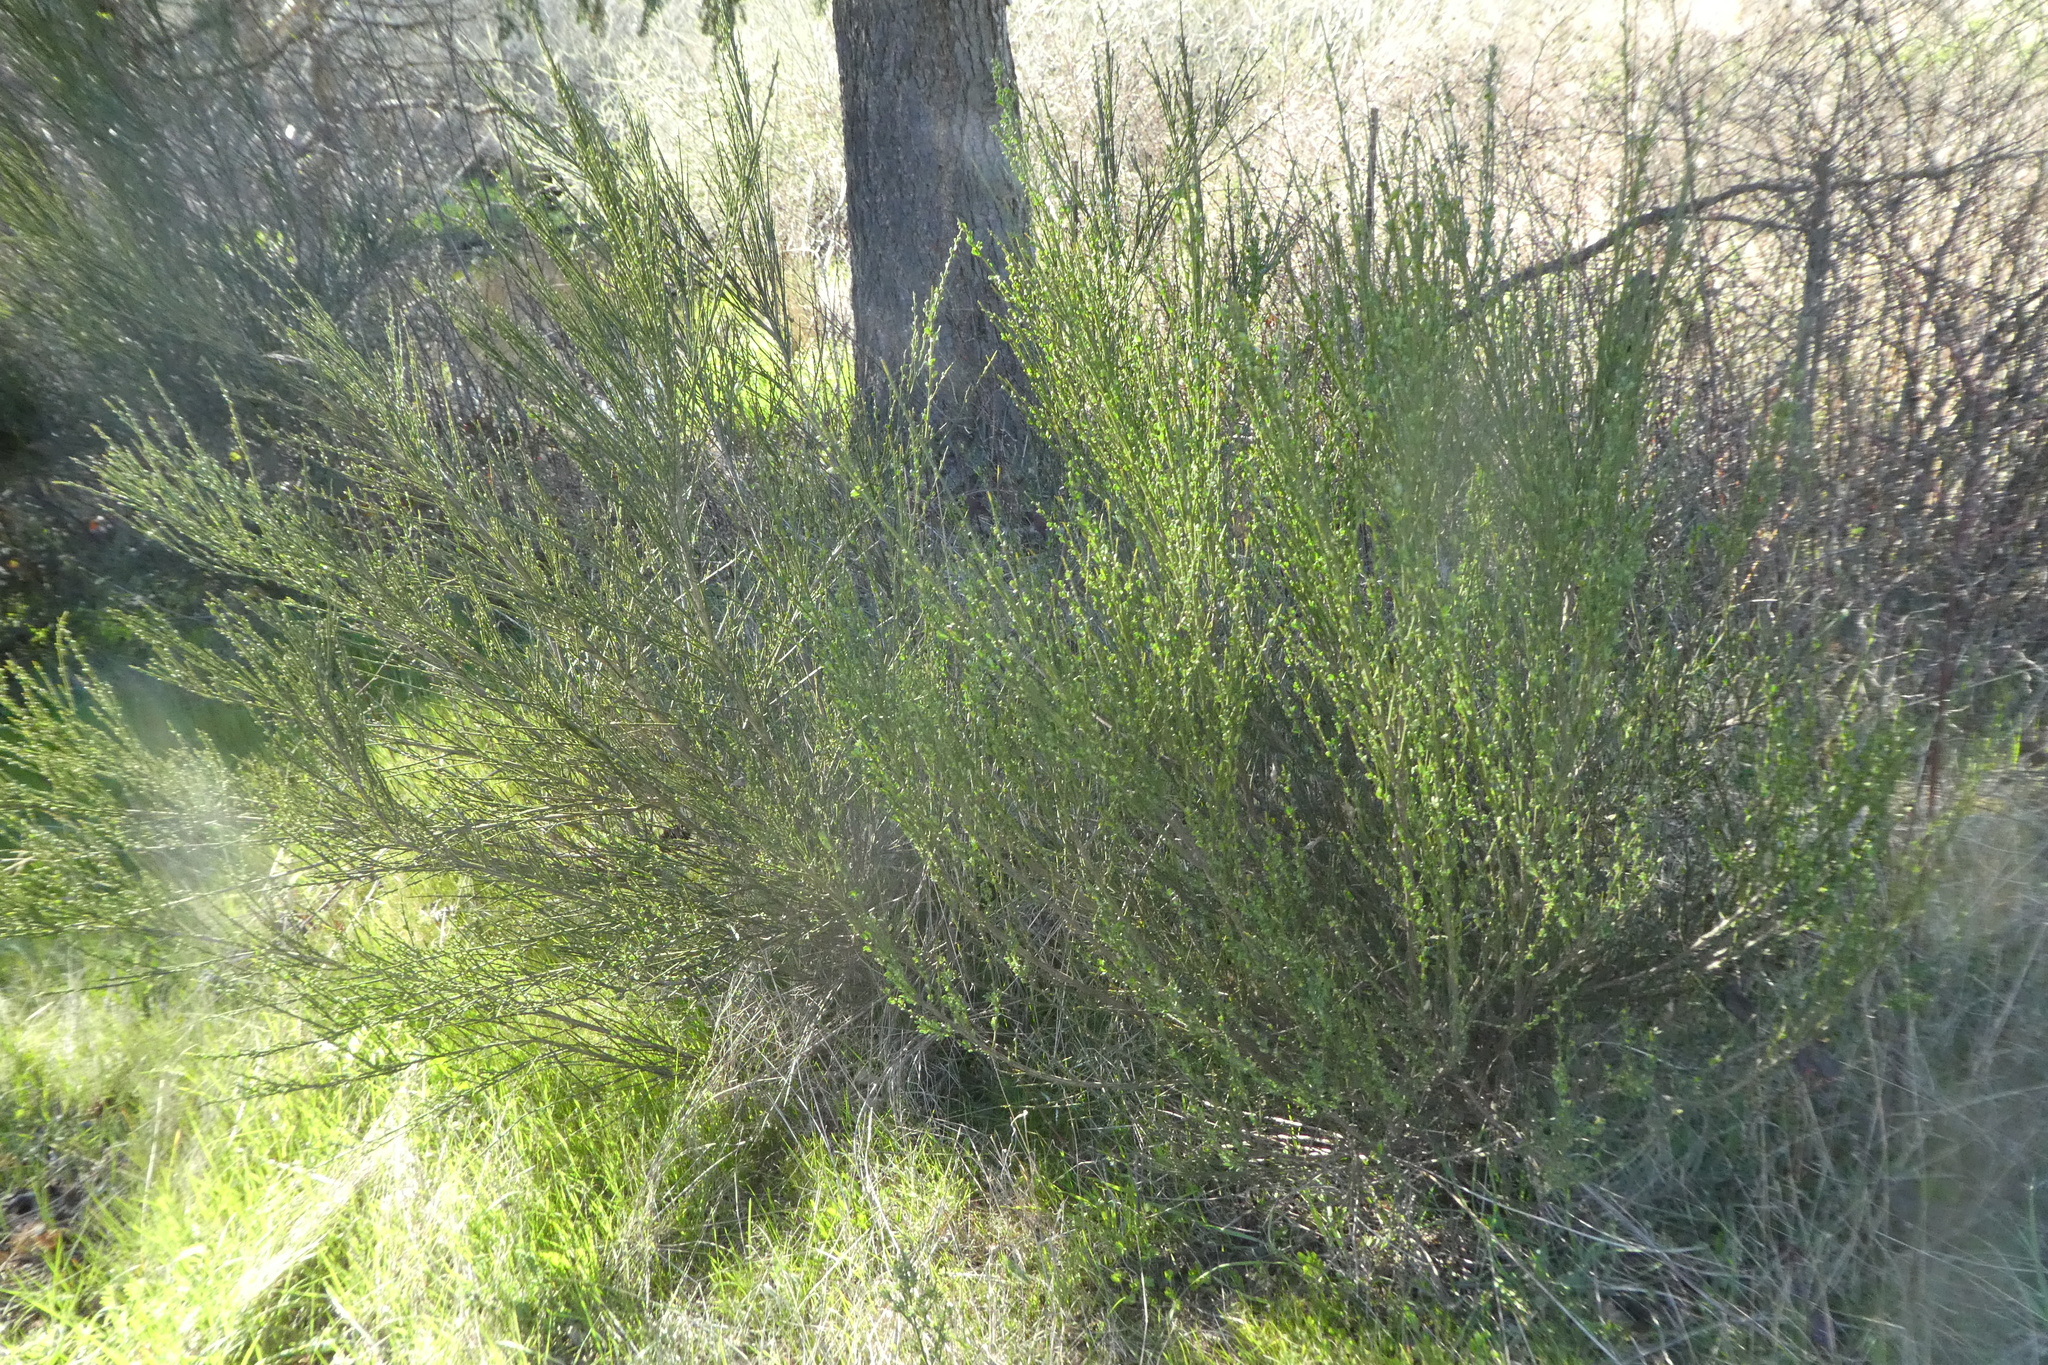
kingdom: Plantae
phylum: Tracheophyta
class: Magnoliopsida
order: Fabales
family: Fabaceae
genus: Cytisus
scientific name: Cytisus scoparius
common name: Scotch broom
